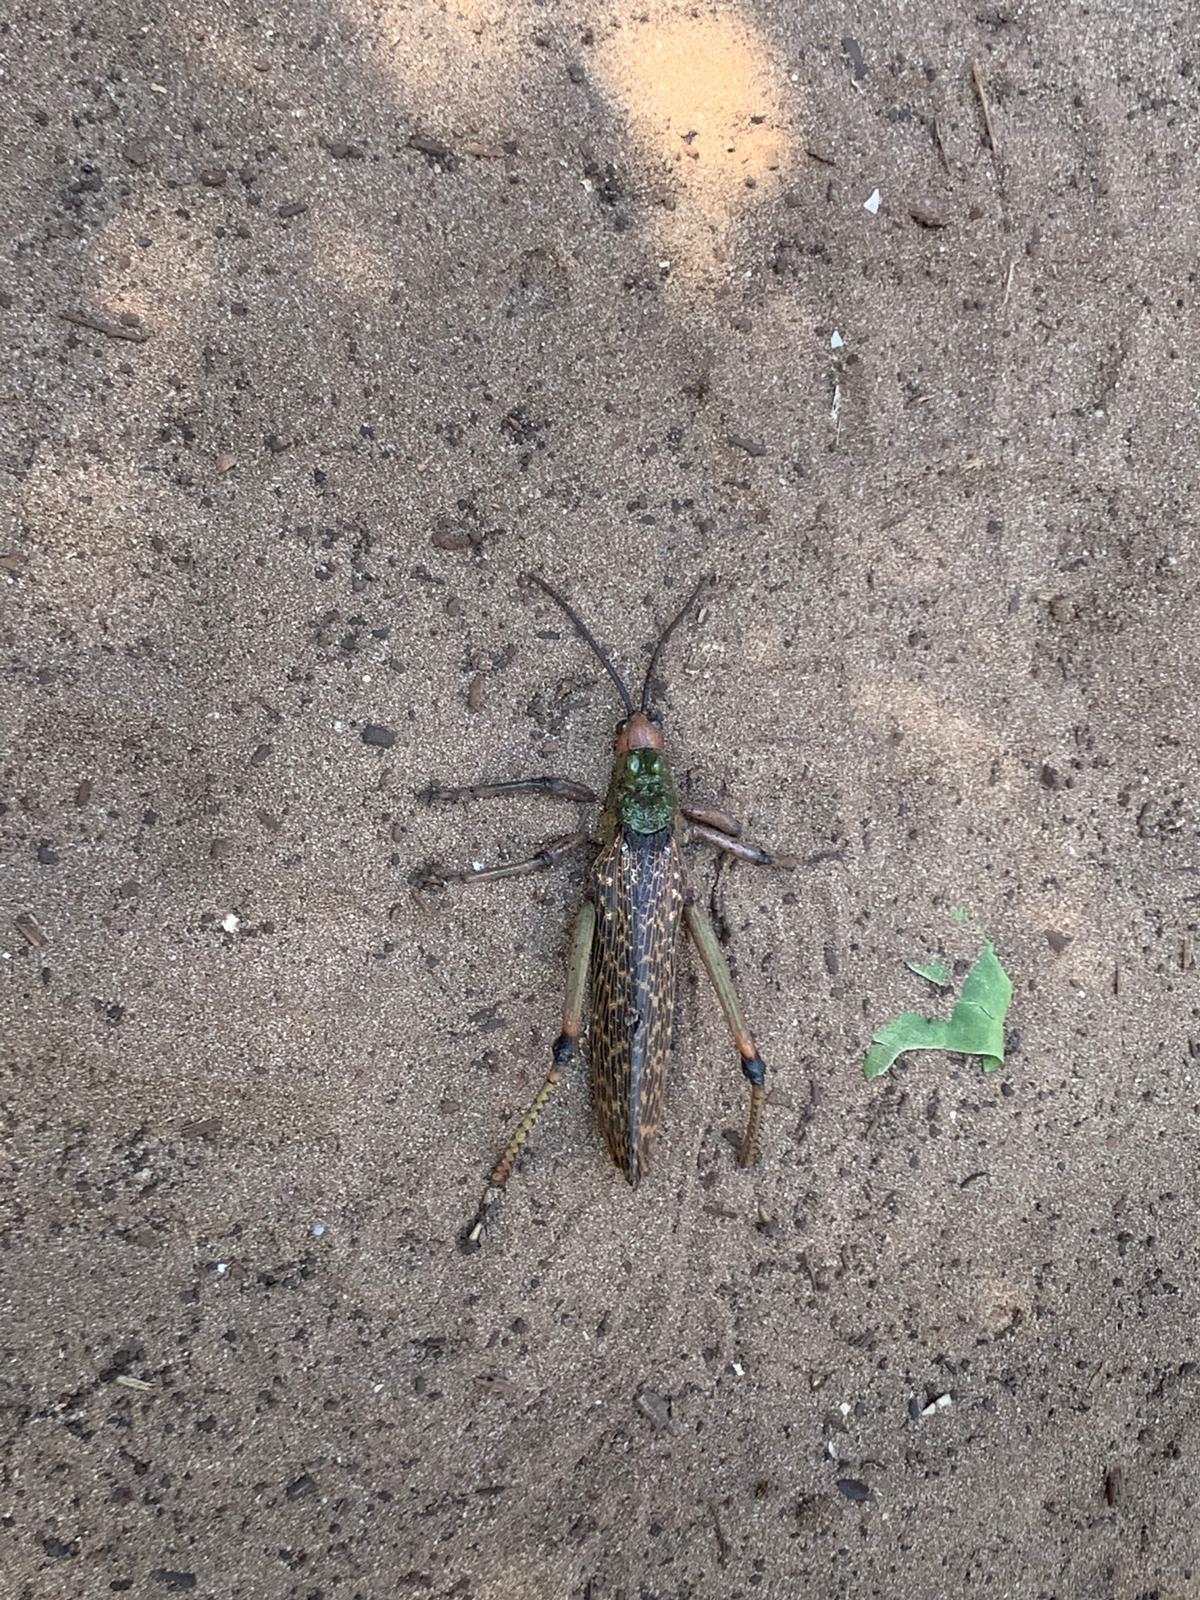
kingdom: Animalia
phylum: Arthropoda
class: Insecta
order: Orthoptera
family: Pyrgomorphidae
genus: Phymateus
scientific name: Phymateus leprosus
